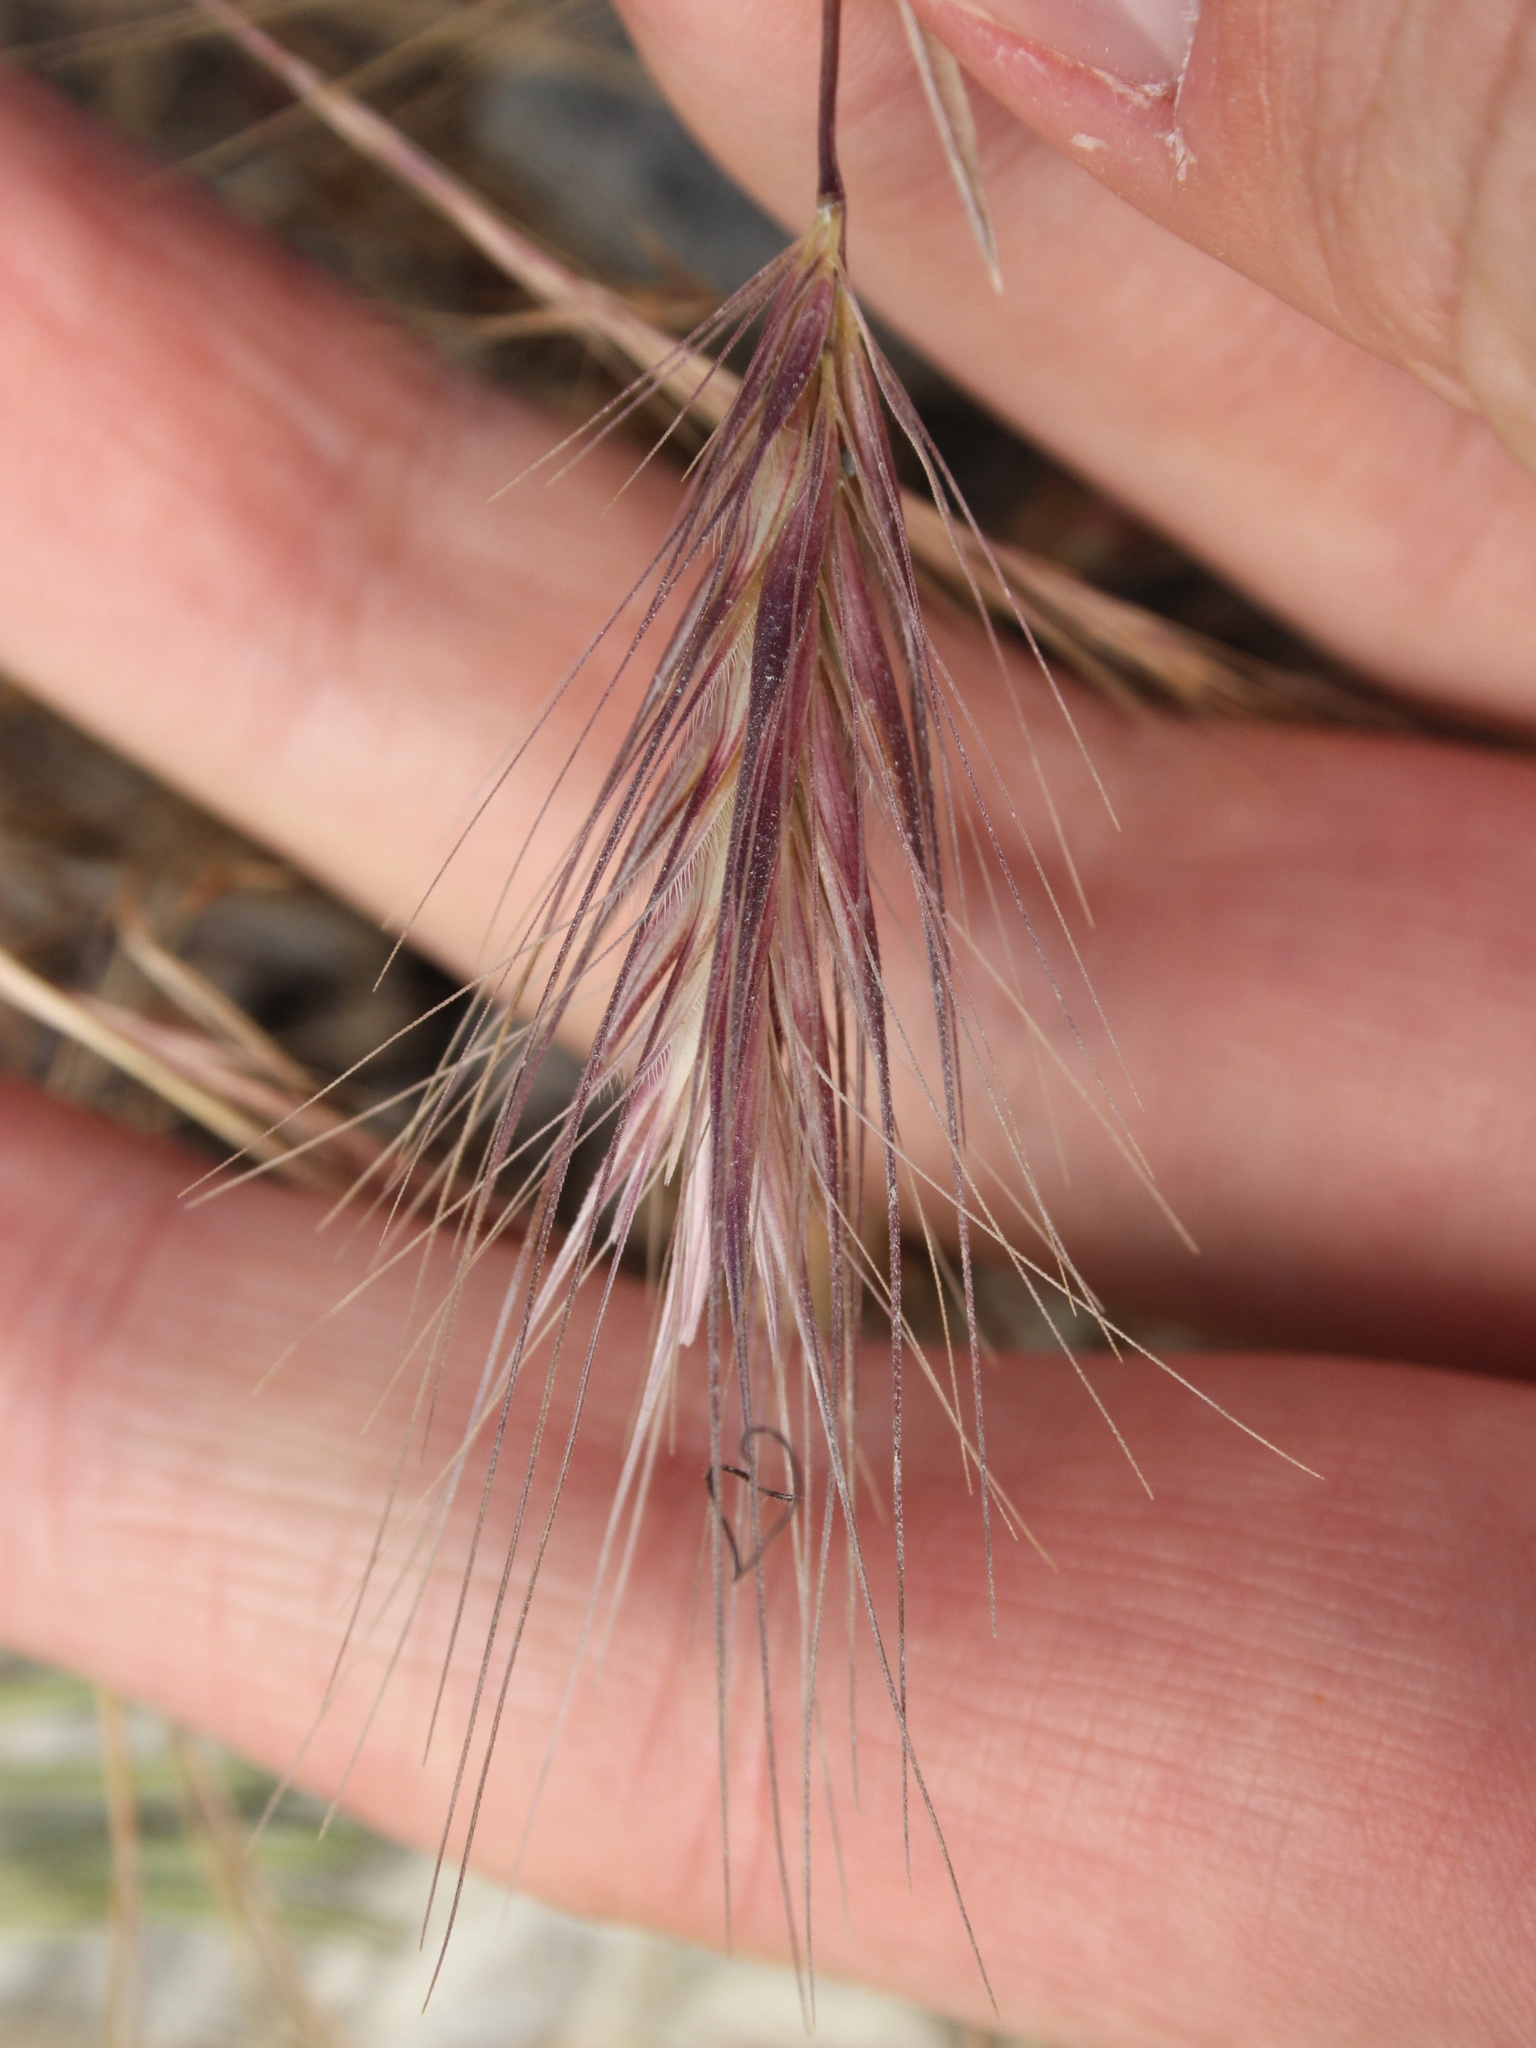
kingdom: Plantae
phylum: Tracheophyta
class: Liliopsida
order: Poales
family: Poaceae
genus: Hordeum
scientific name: Hordeum murinum
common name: Wall barley
